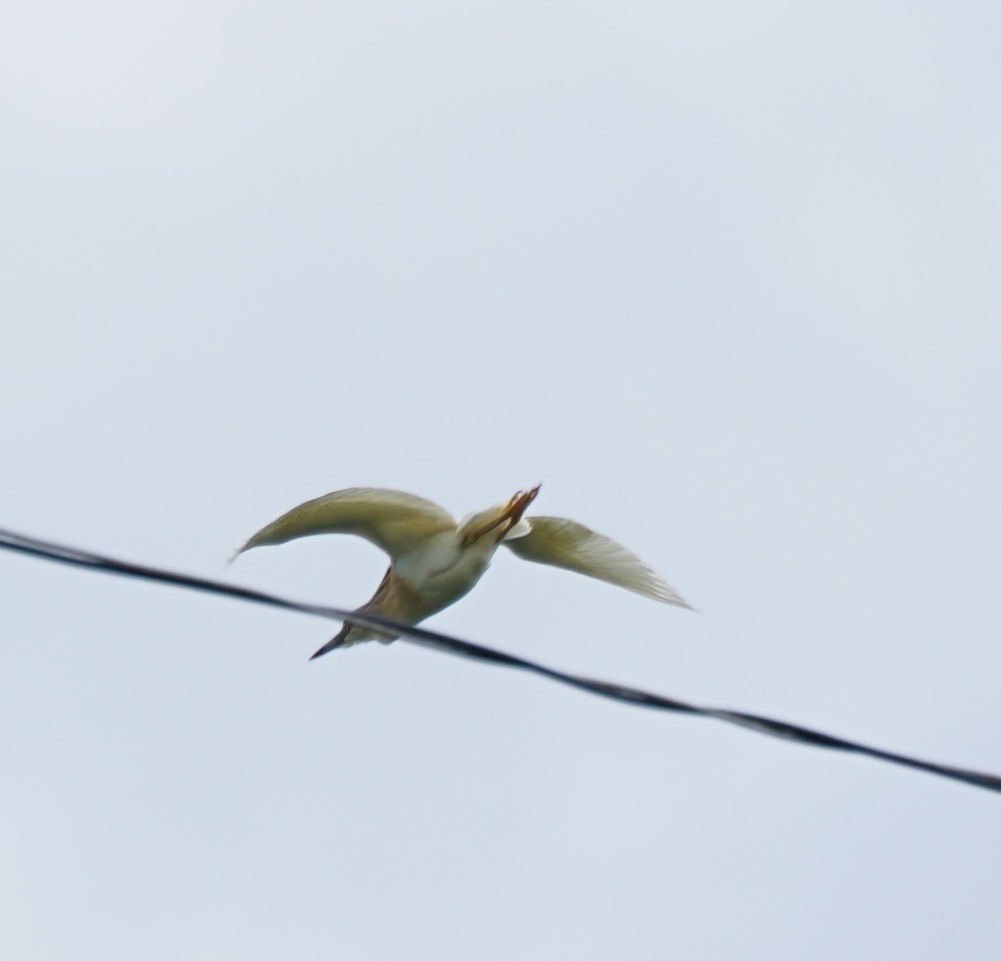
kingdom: Animalia
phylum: Chordata
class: Aves
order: Pelecaniformes
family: Ardeidae
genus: Ardeola
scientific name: Ardeola ralloides
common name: Squacco heron
